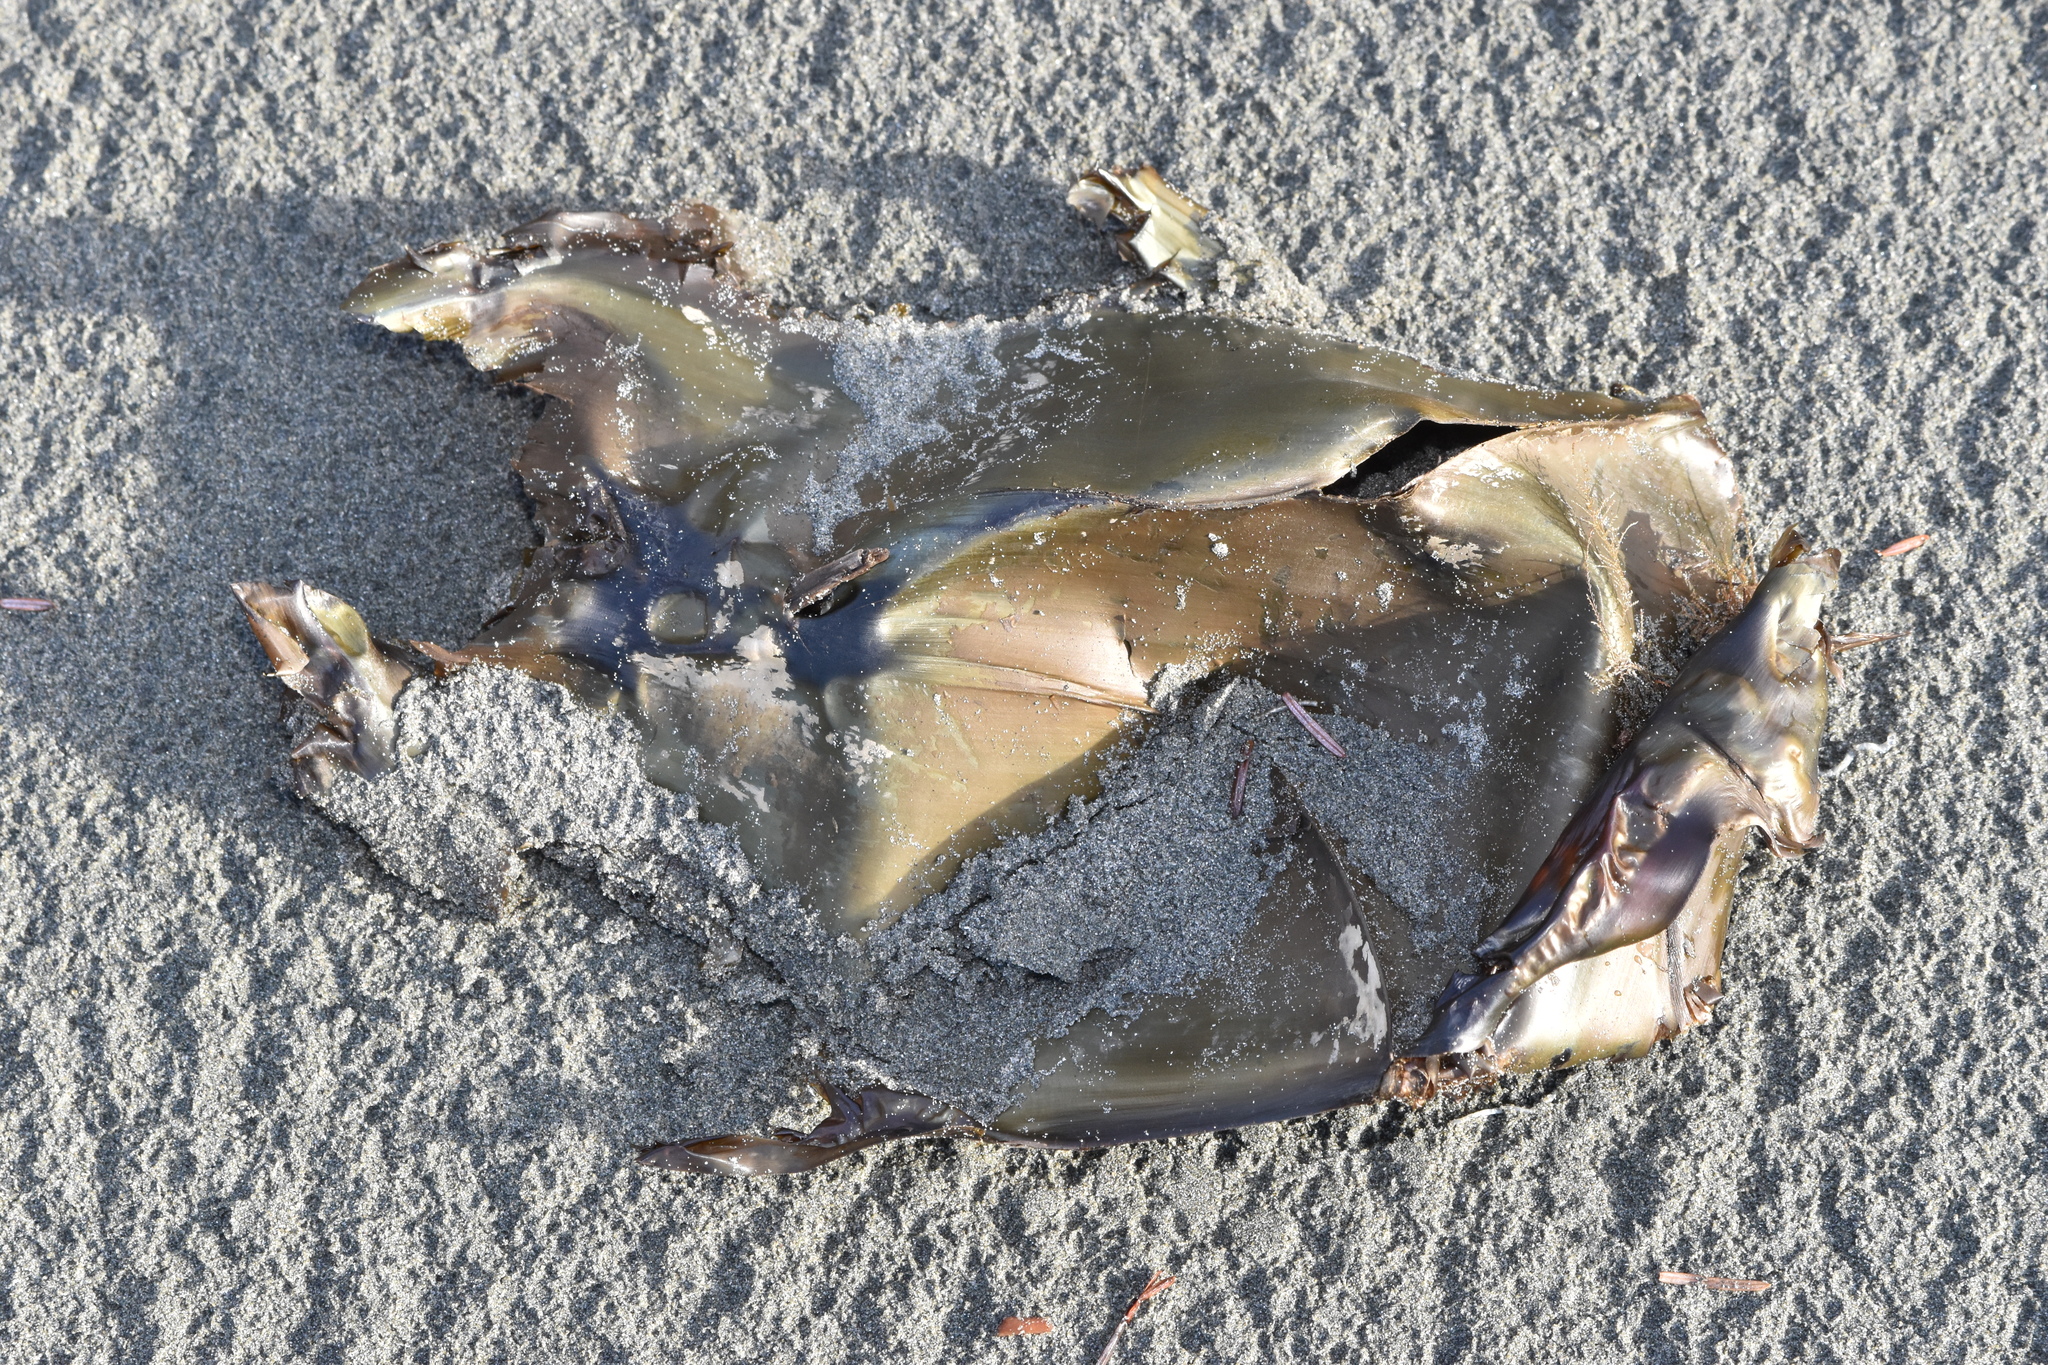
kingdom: Animalia
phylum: Chordata
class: Elasmobranchii
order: Rajiformes
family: Rajidae
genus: Beringraja
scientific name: Beringraja binoculata
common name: Big skate
